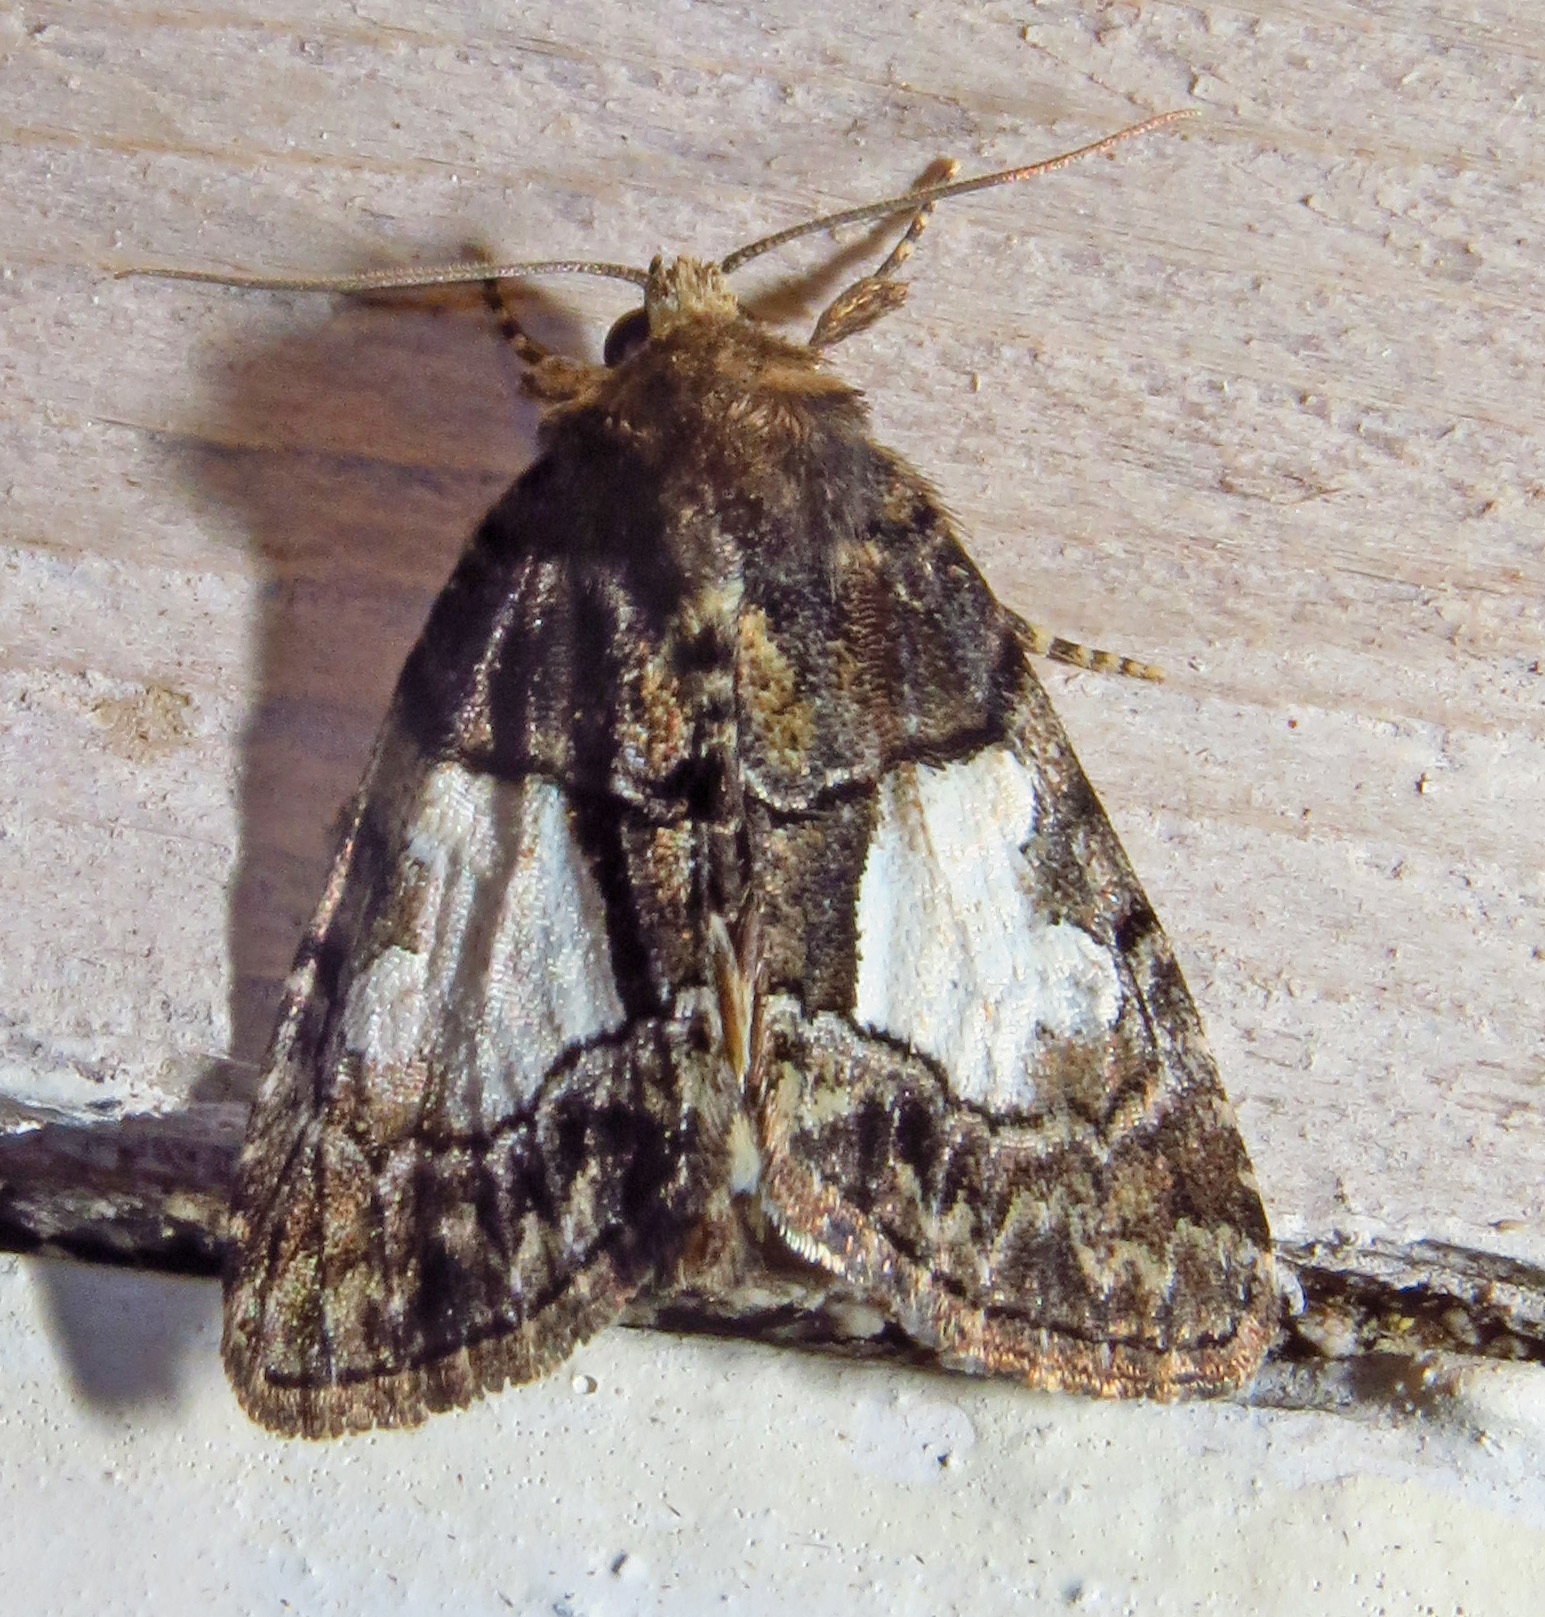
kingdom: Animalia
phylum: Arthropoda
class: Insecta
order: Lepidoptera
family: Noctuidae
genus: Chytonix
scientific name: Chytonix palliatricula
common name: Cloaked marvel
